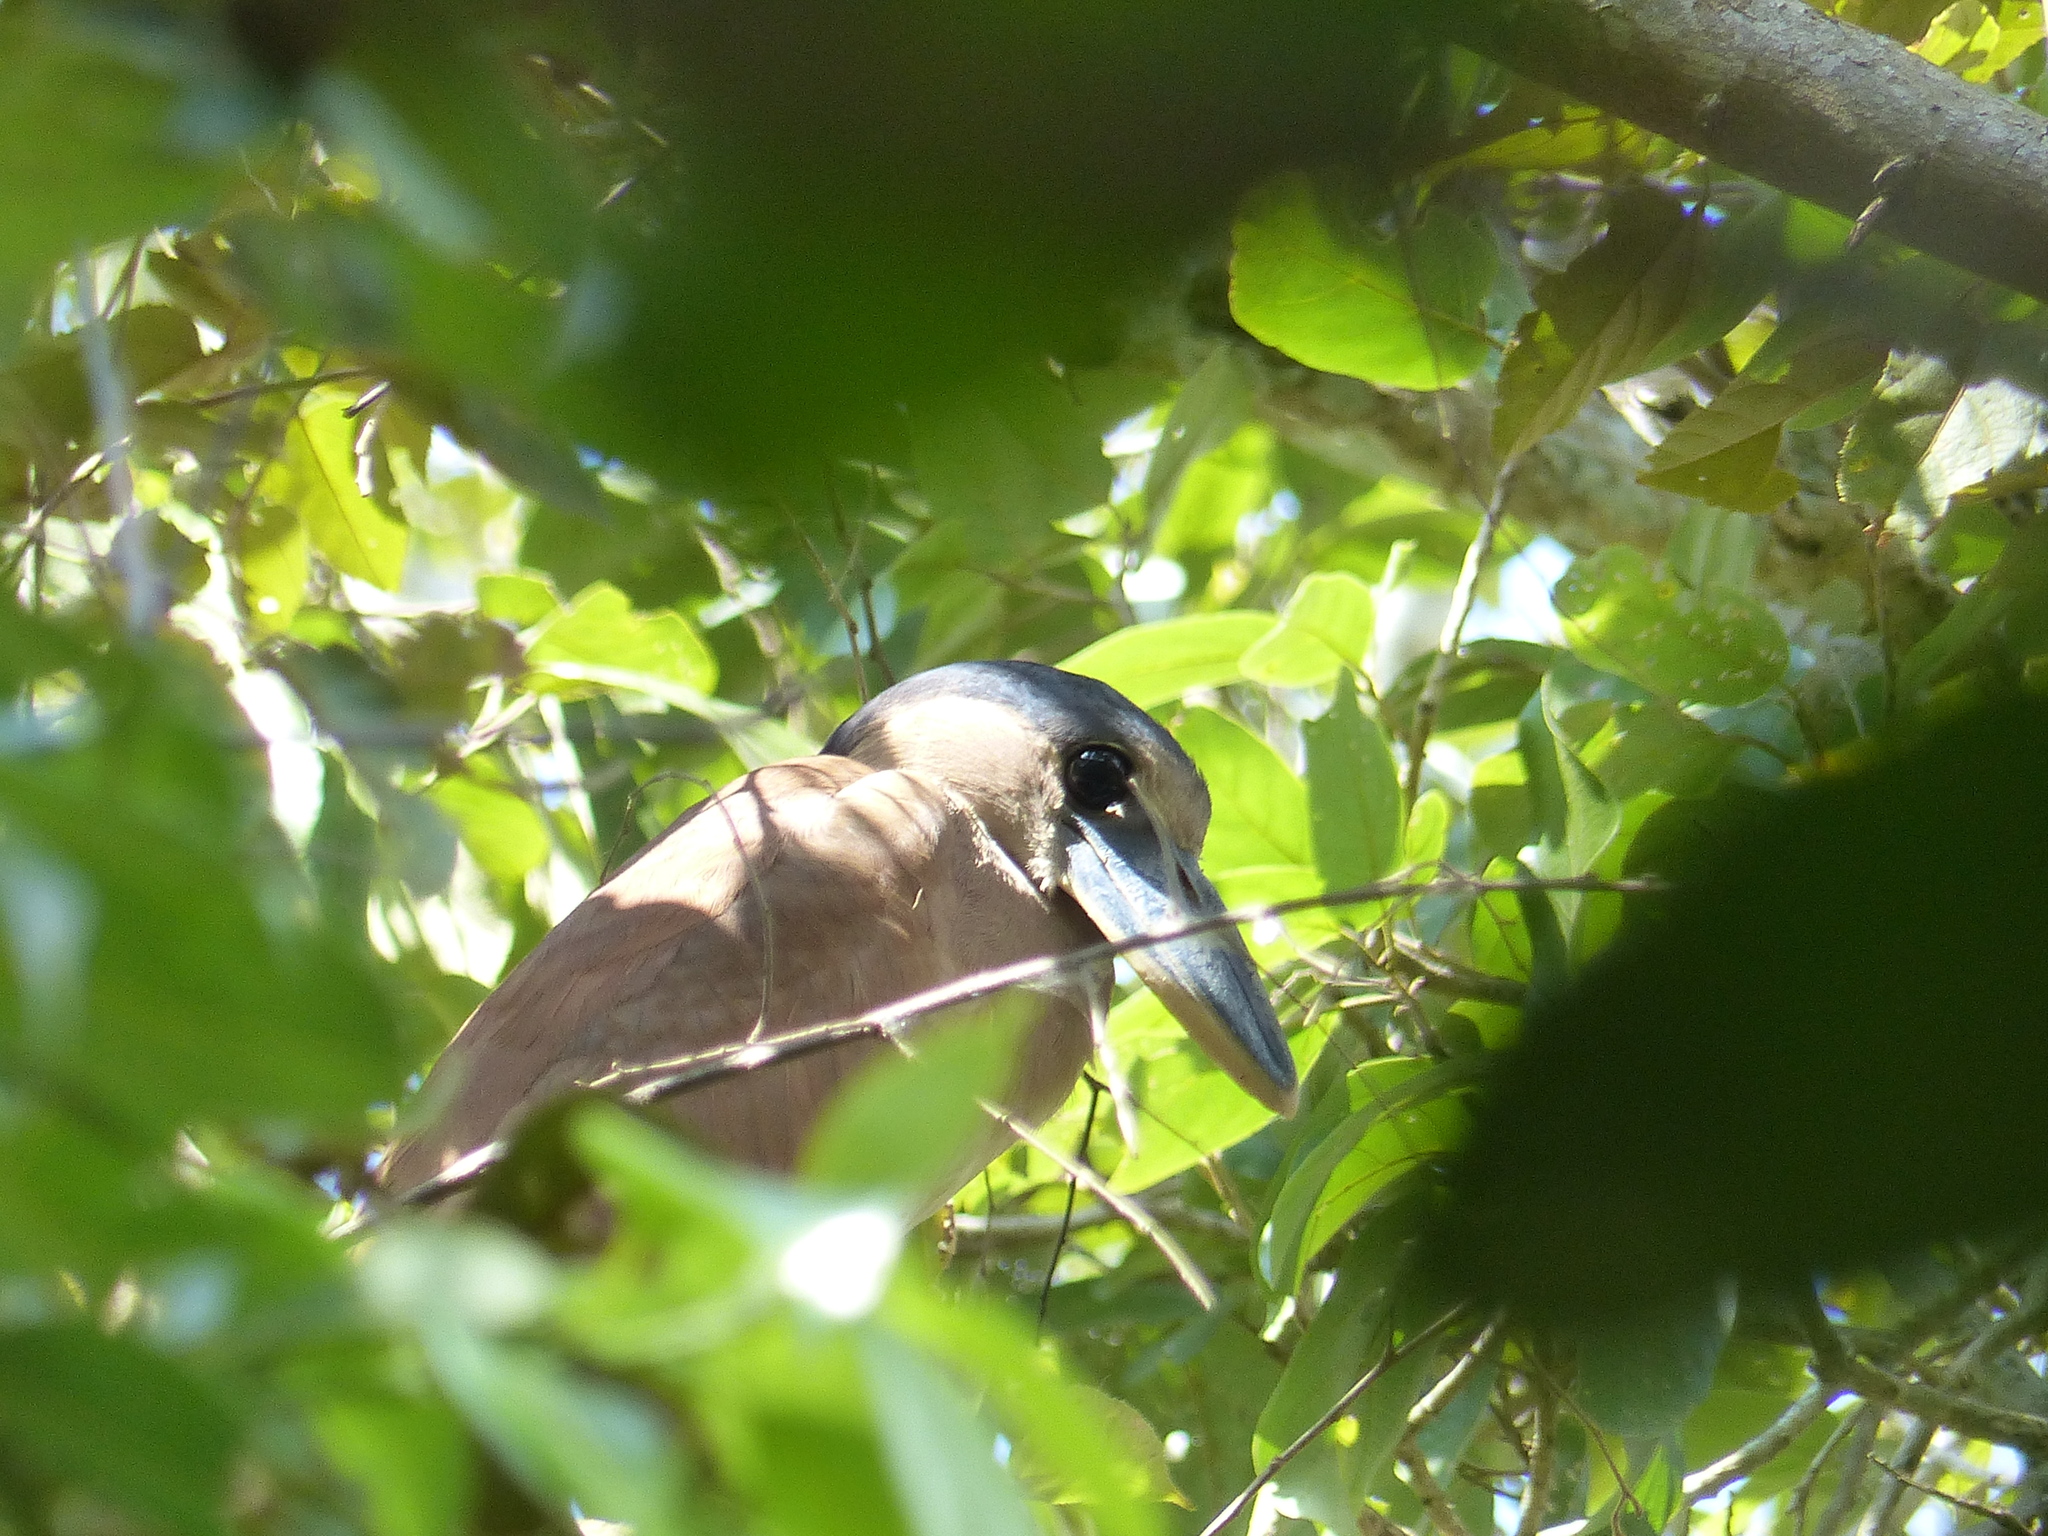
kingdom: Animalia
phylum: Chordata
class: Aves
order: Pelecaniformes
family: Ardeidae
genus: Cochlearius
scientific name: Cochlearius cochlearius
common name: Boat-billed heron
